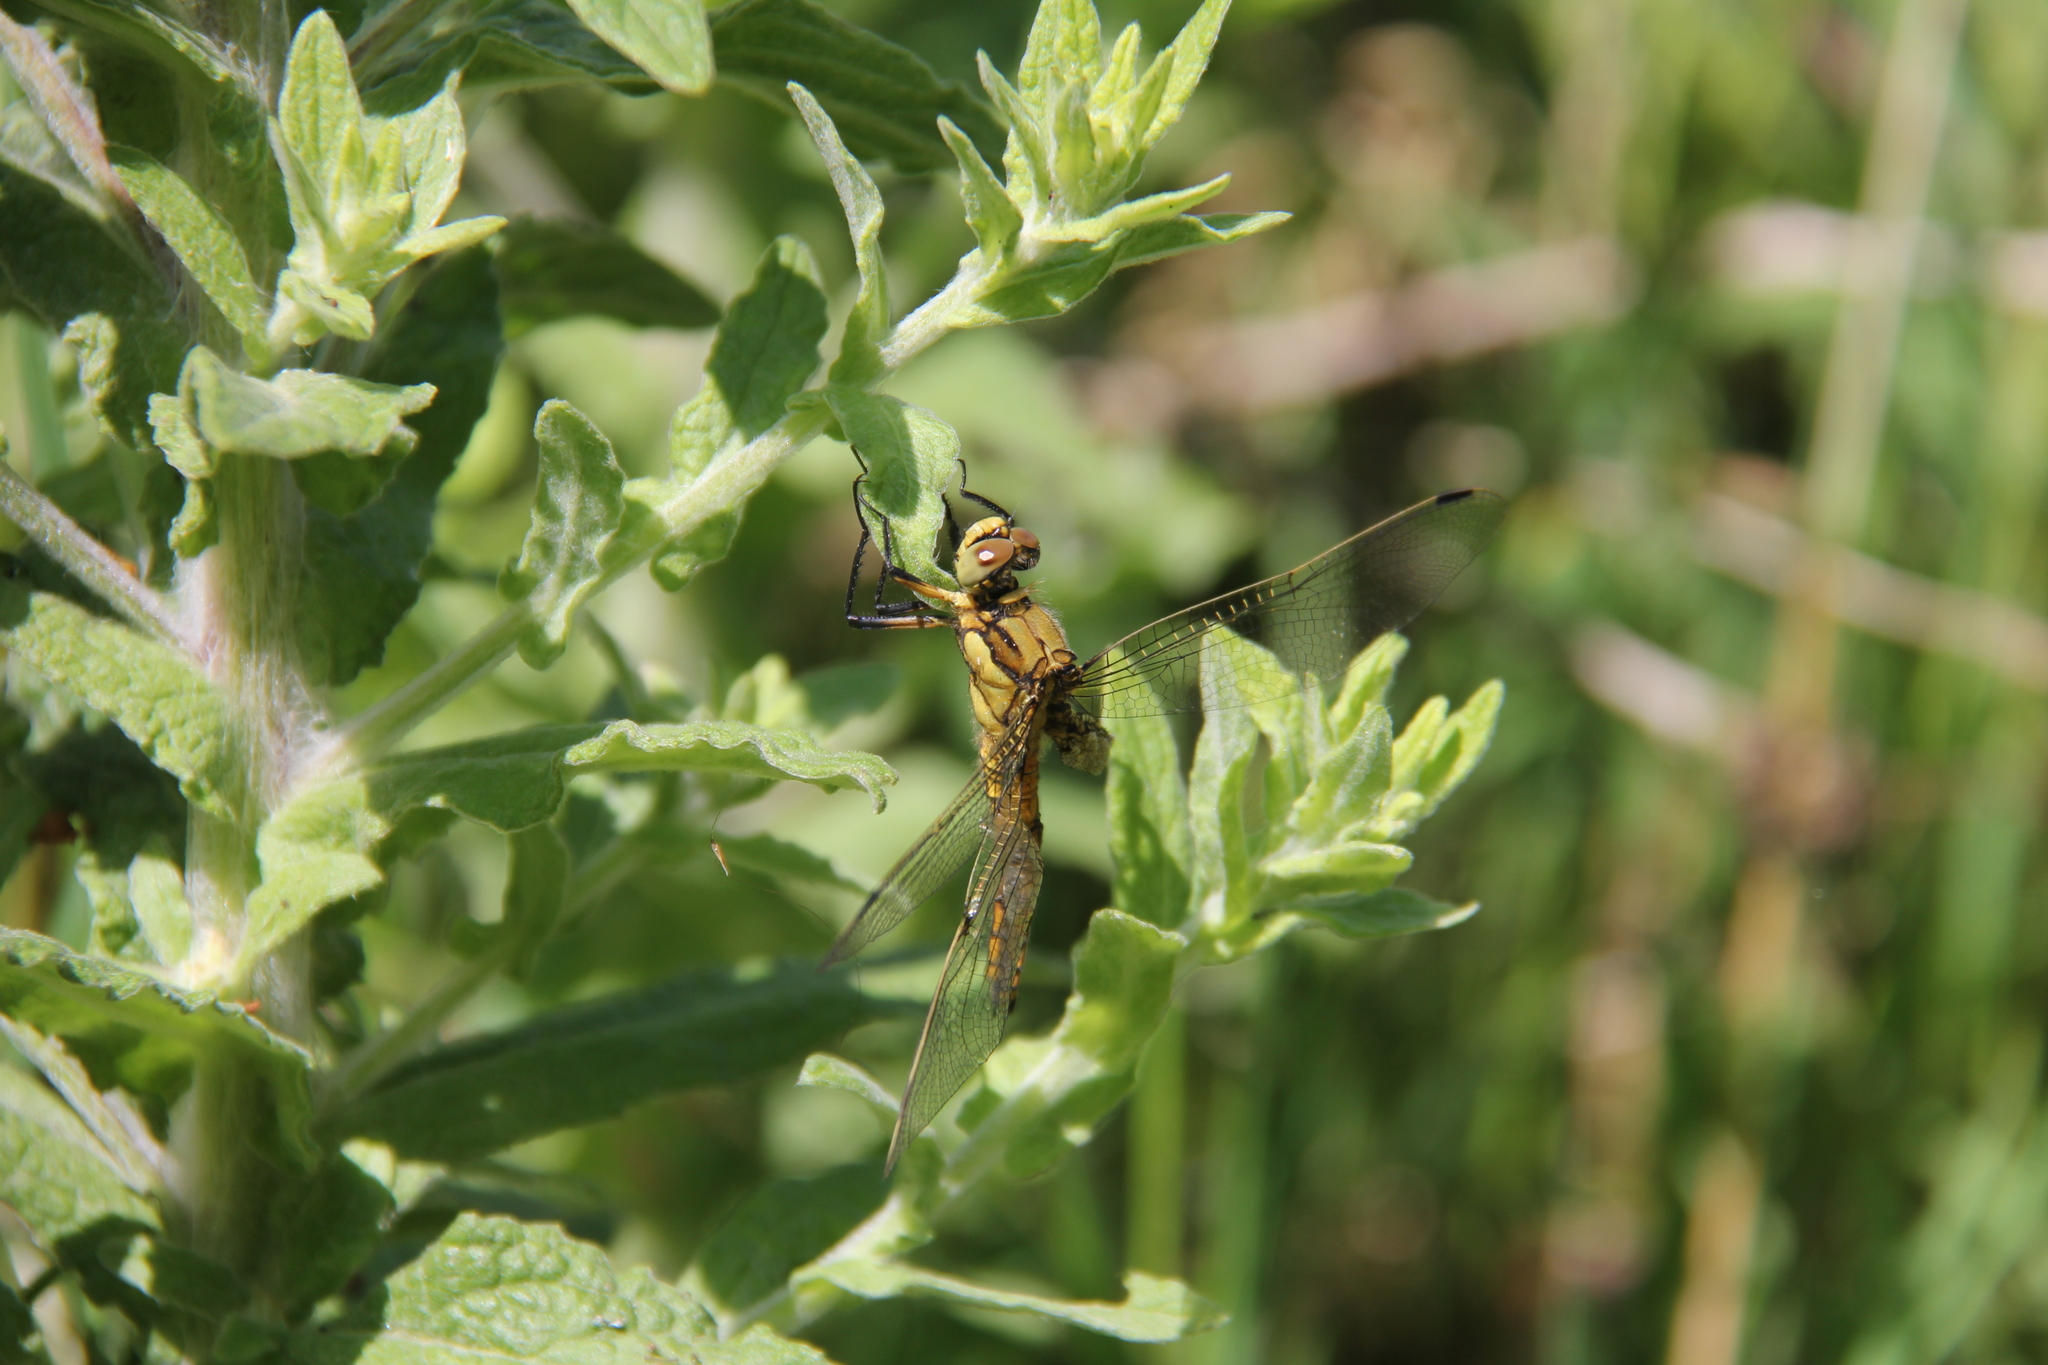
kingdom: Animalia
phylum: Arthropoda
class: Insecta
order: Odonata
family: Libellulidae
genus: Orthetrum
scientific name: Orthetrum cancellatum
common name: Black-tailed skimmer
